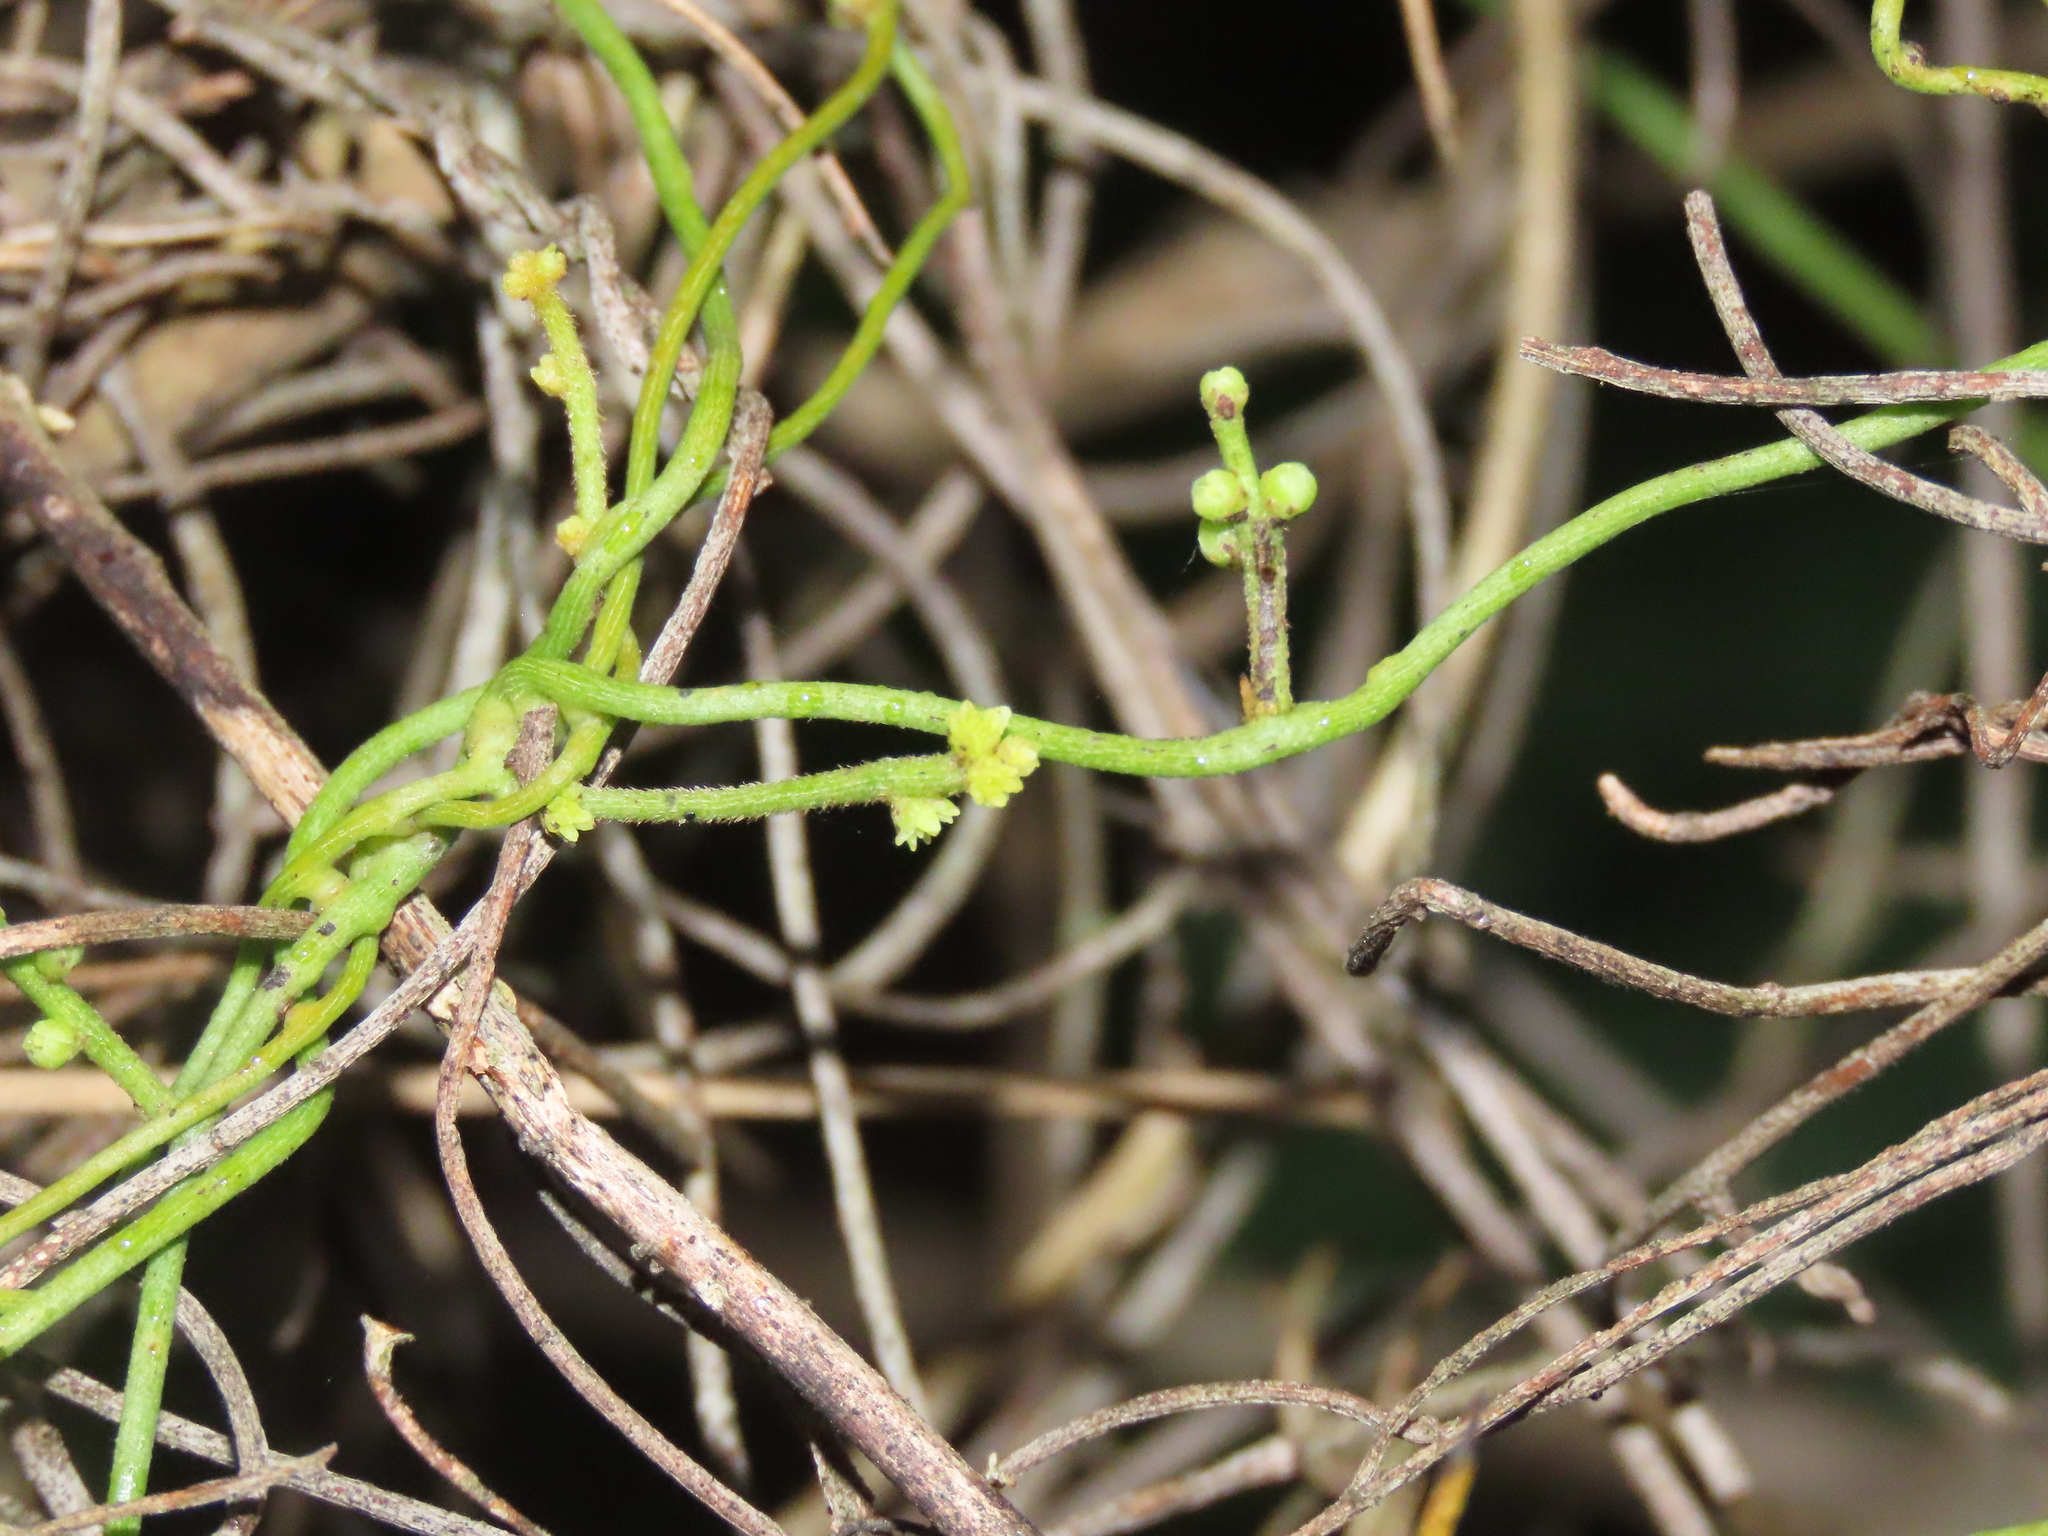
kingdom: Plantae
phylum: Tracheophyta
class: Magnoliopsida
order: Laurales
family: Lauraceae
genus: Cassytha
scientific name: Cassytha filiformis
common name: Dodder-laurel
